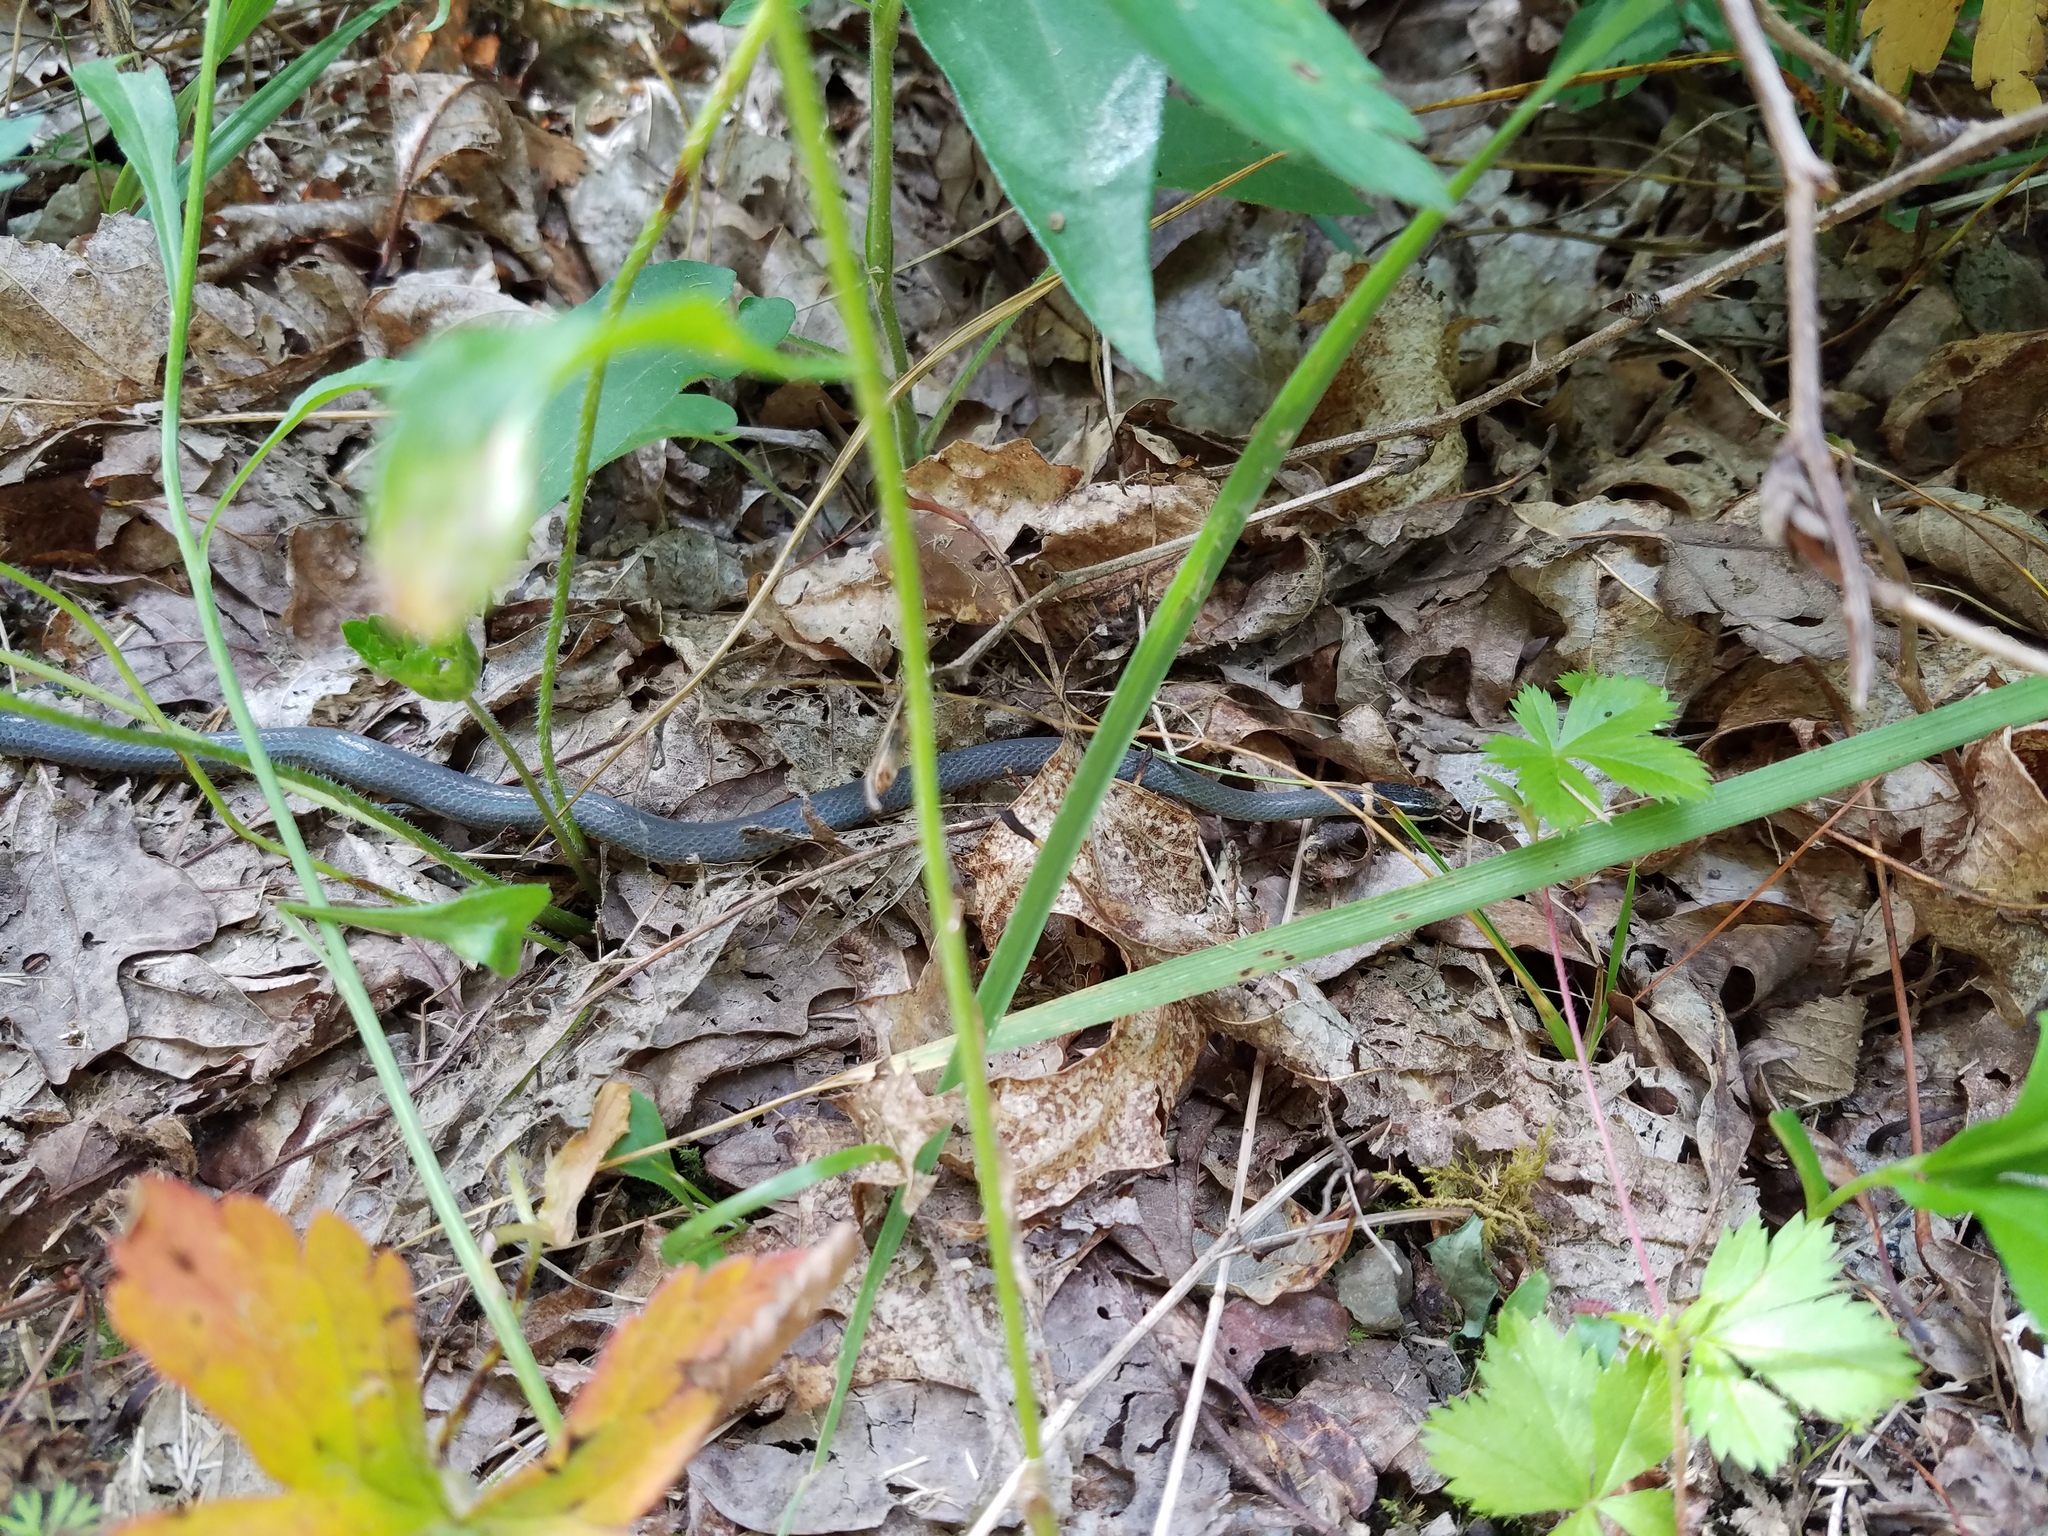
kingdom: Animalia
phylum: Chordata
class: Squamata
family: Colubridae
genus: Diadophis
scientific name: Diadophis punctatus
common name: Ringneck snake
